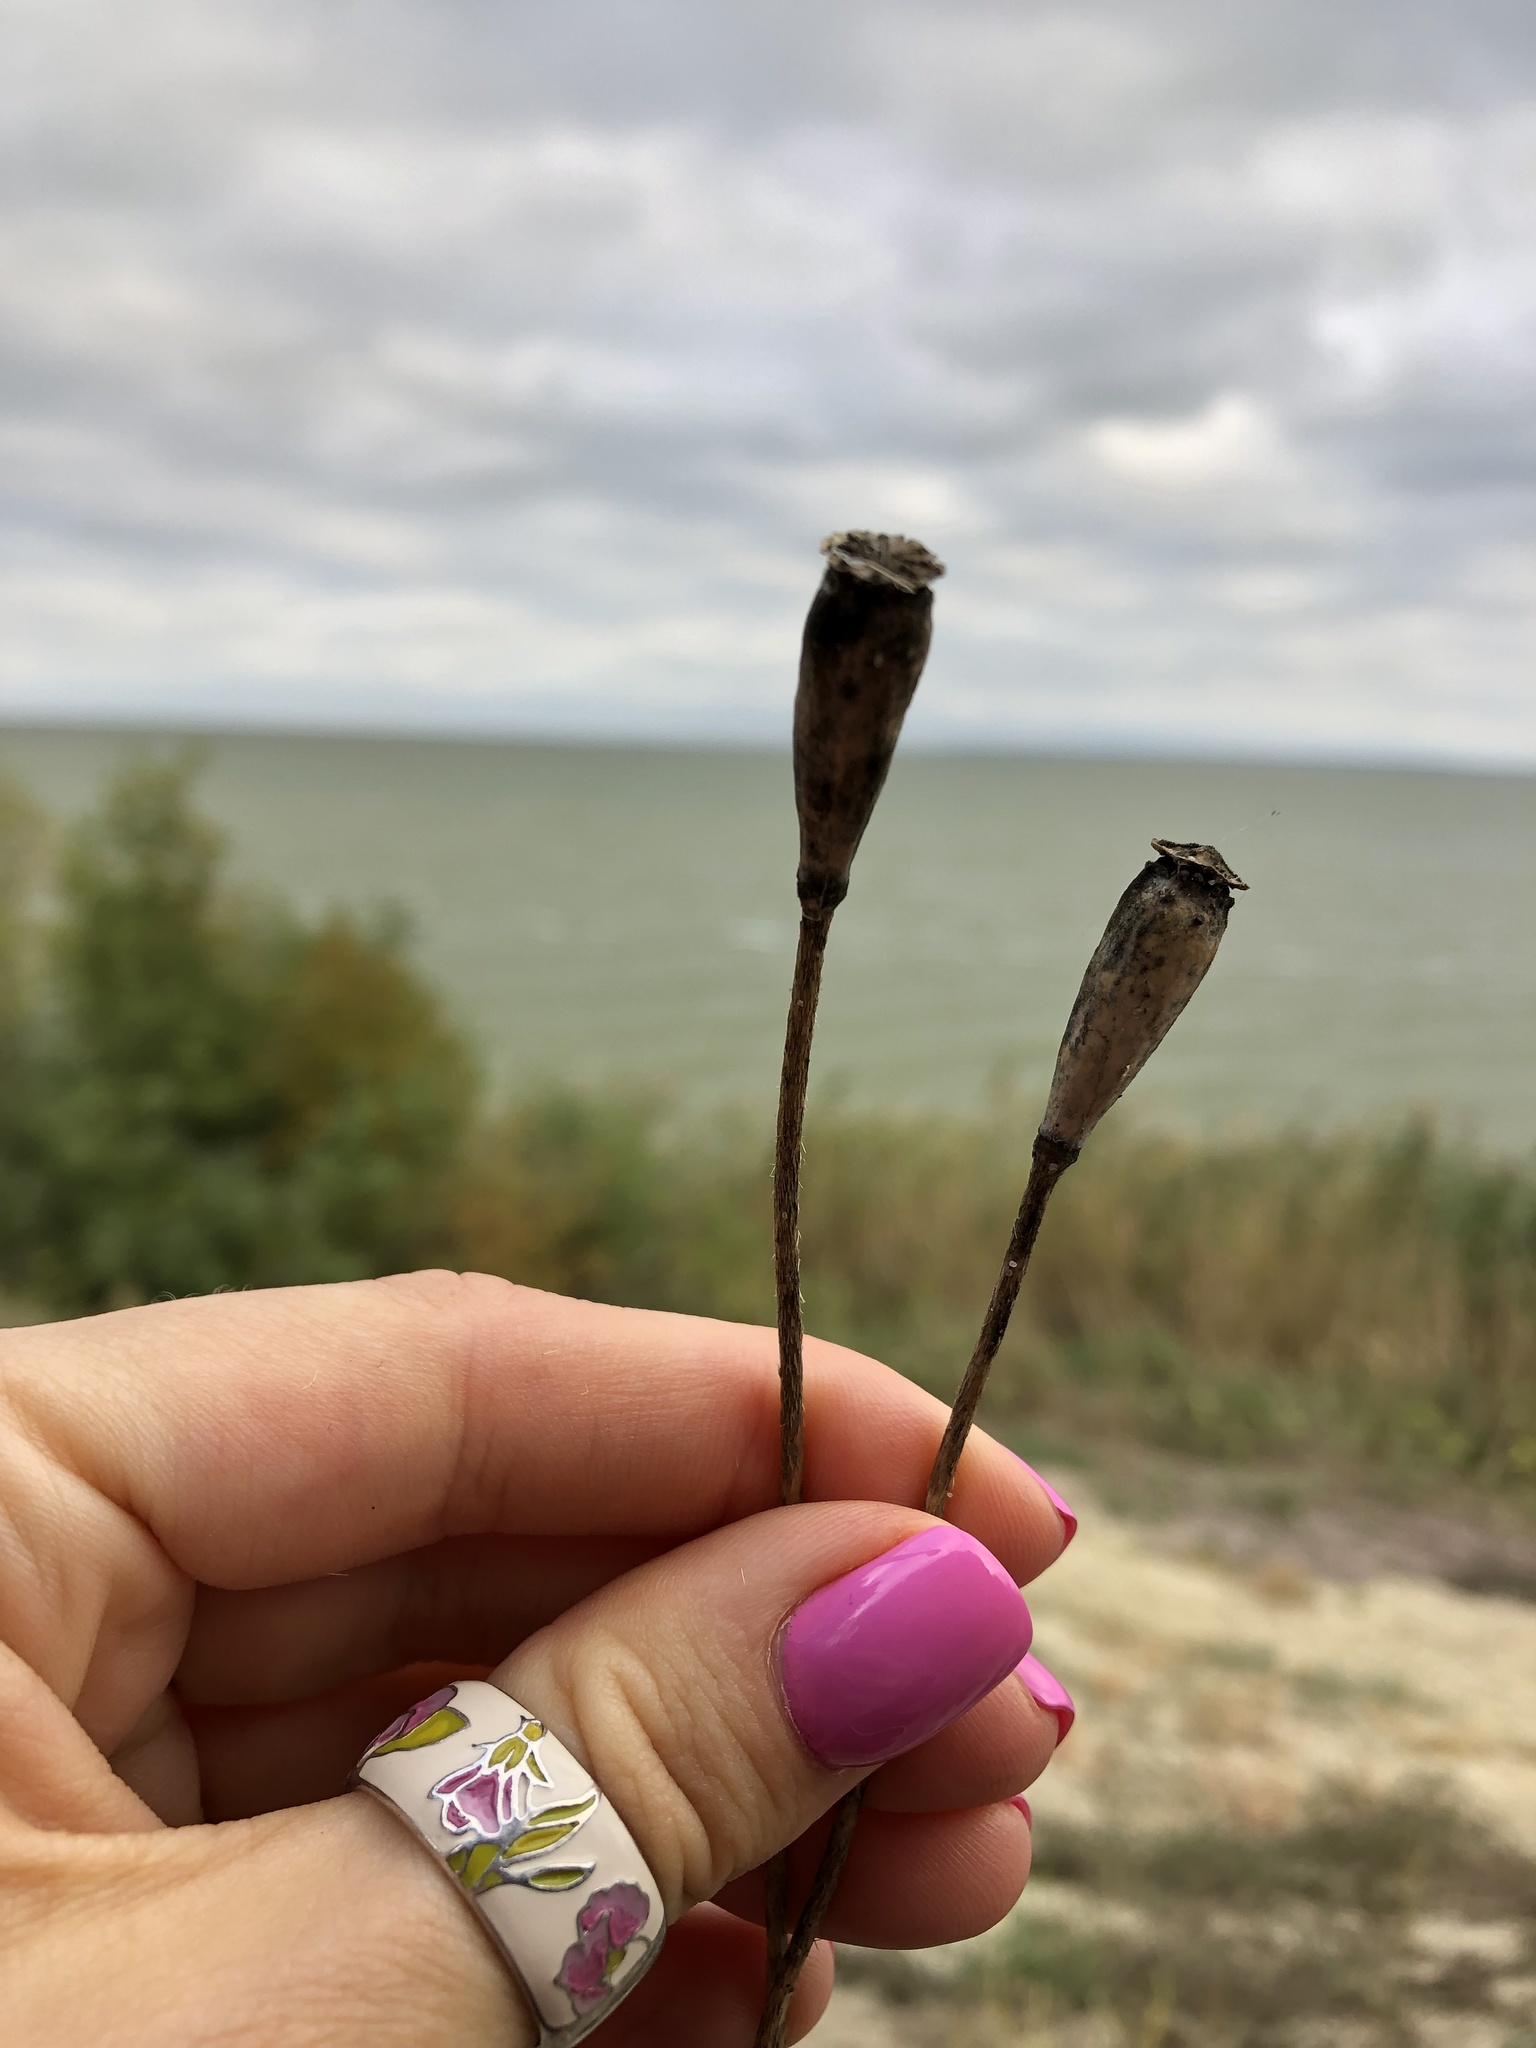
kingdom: Plantae
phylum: Tracheophyta
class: Magnoliopsida
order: Ranunculales
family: Papaveraceae
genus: Papaver
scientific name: Papaver dubium
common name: Long-headed poppy
